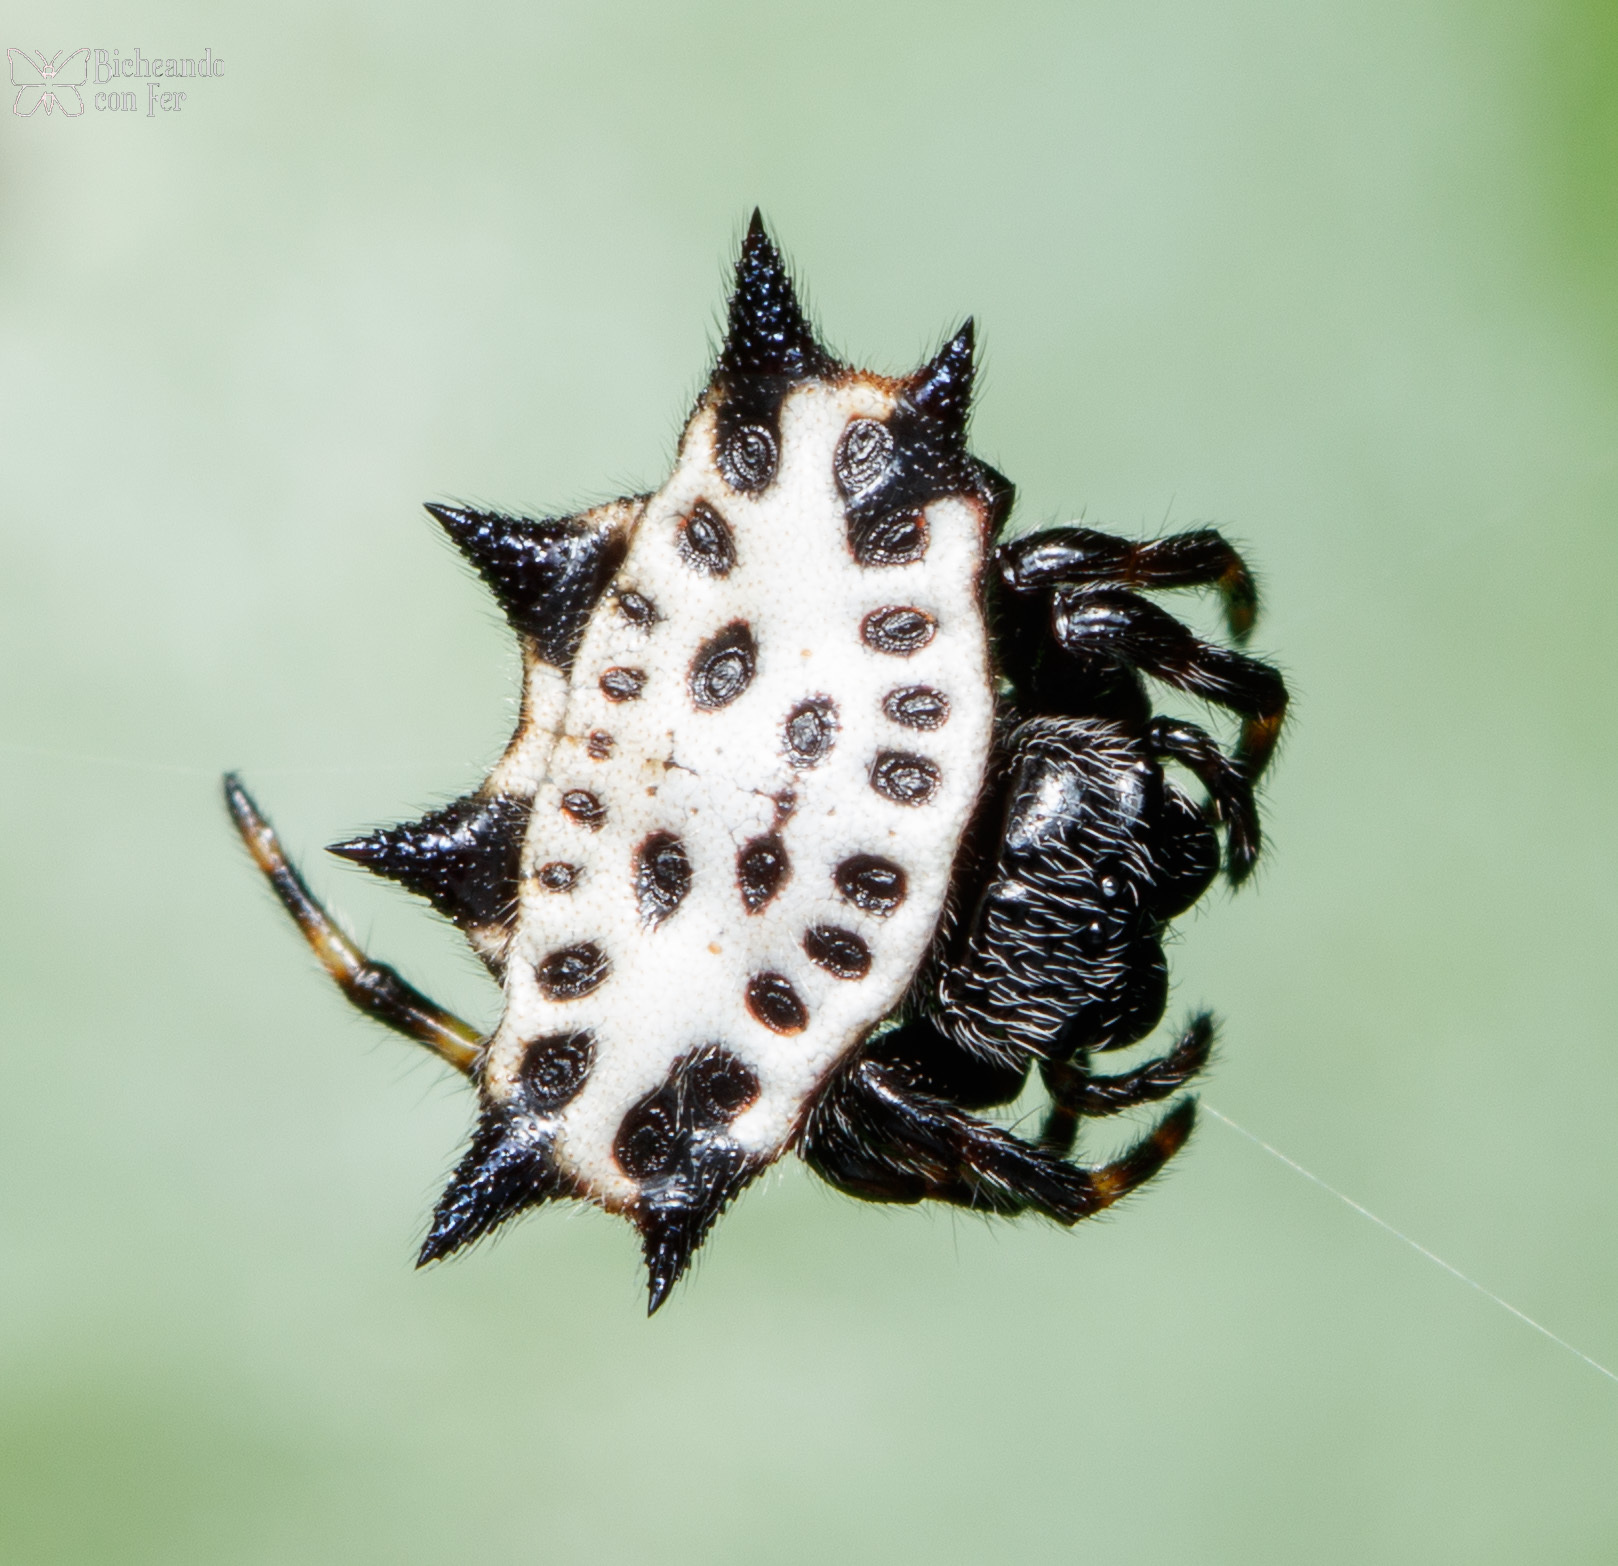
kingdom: Animalia
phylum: Arthropoda
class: Arachnida
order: Araneae
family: Araneidae
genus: Gasteracantha
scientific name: Gasteracantha cancriformis
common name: Orb weavers
